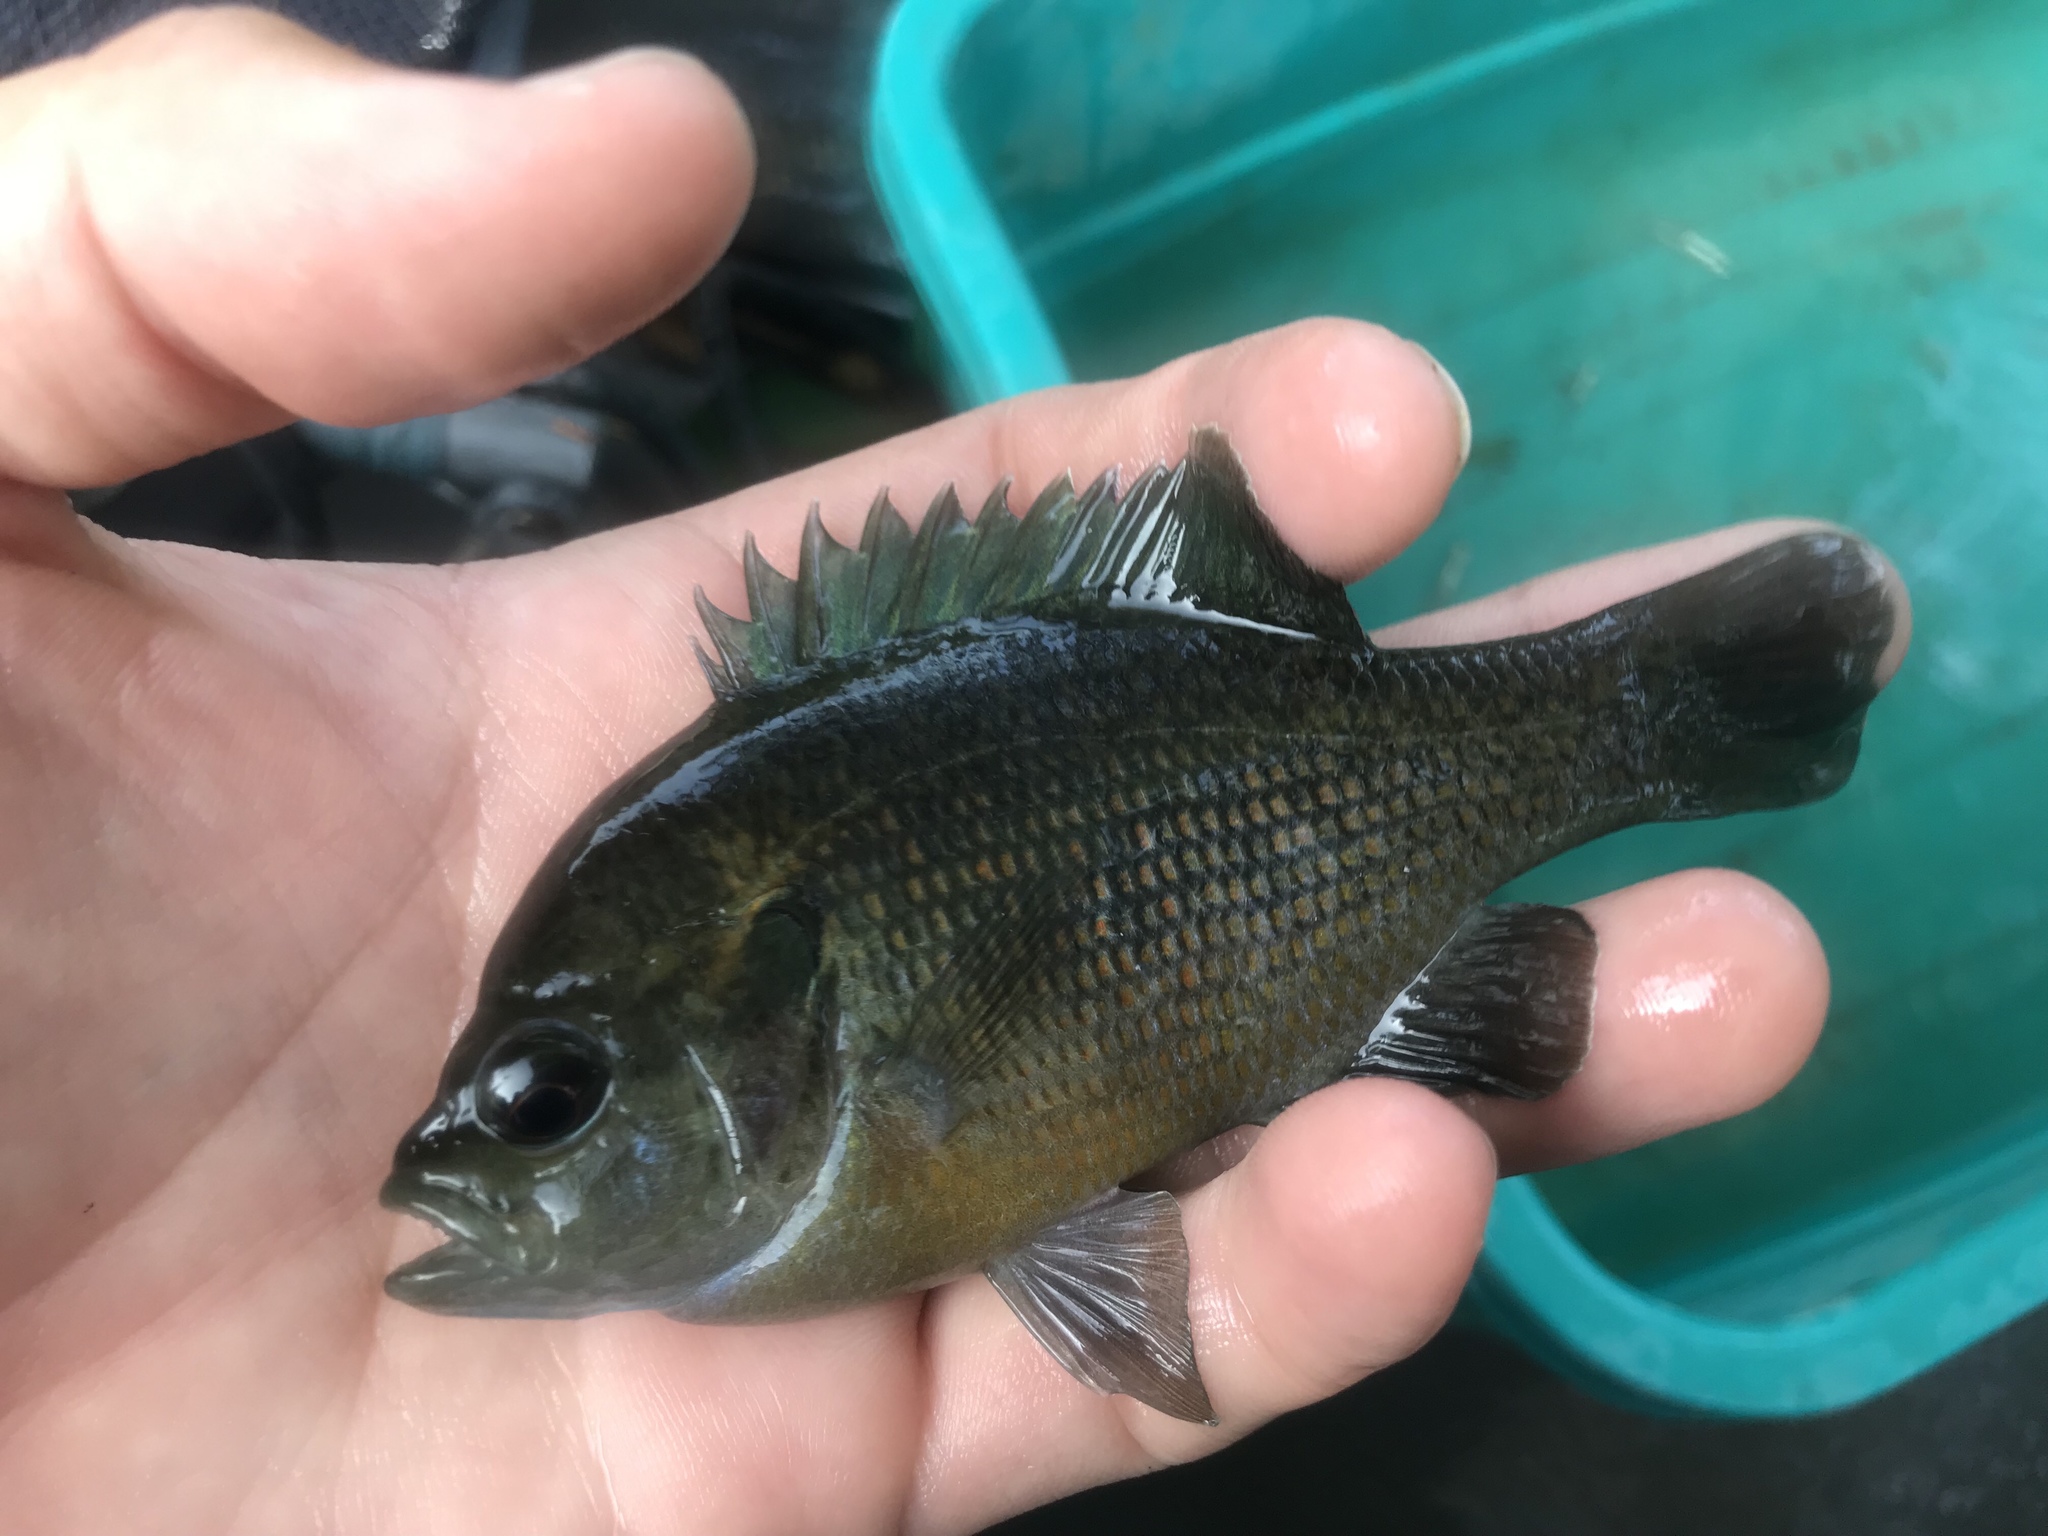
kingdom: Animalia
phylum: Chordata
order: Perciformes
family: Centrarchidae
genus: Lepomis
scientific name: Lepomis miniatus
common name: Redspotted sunfish
